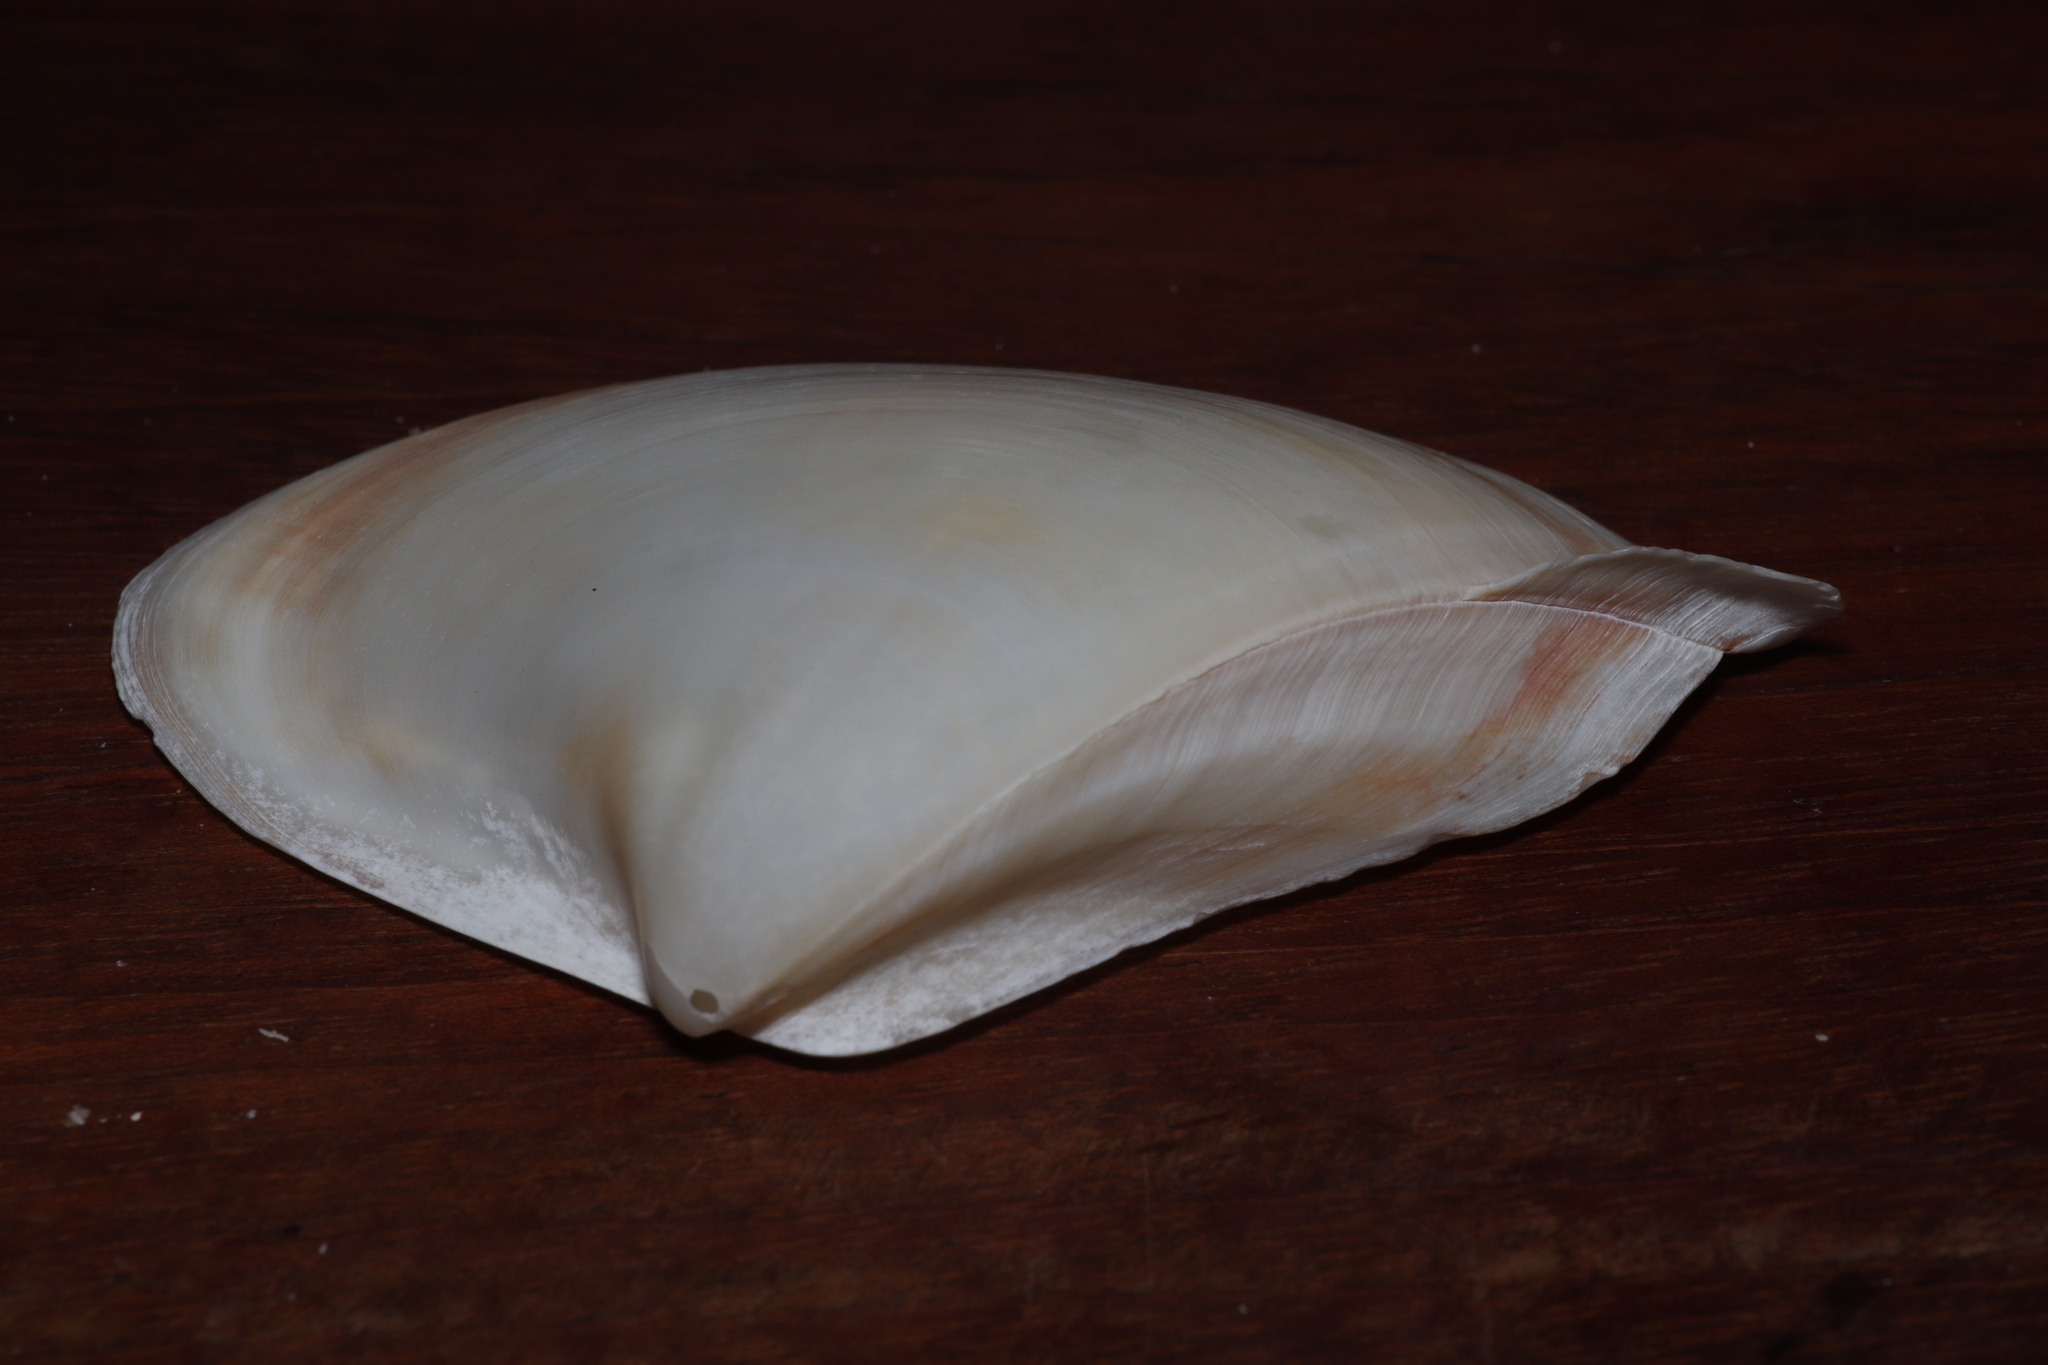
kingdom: Animalia
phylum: Mollusca
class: Bivalvia
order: Venerida
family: Mactridae
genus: Mactrellona
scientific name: Mactrellona alata
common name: Winged surfclam
